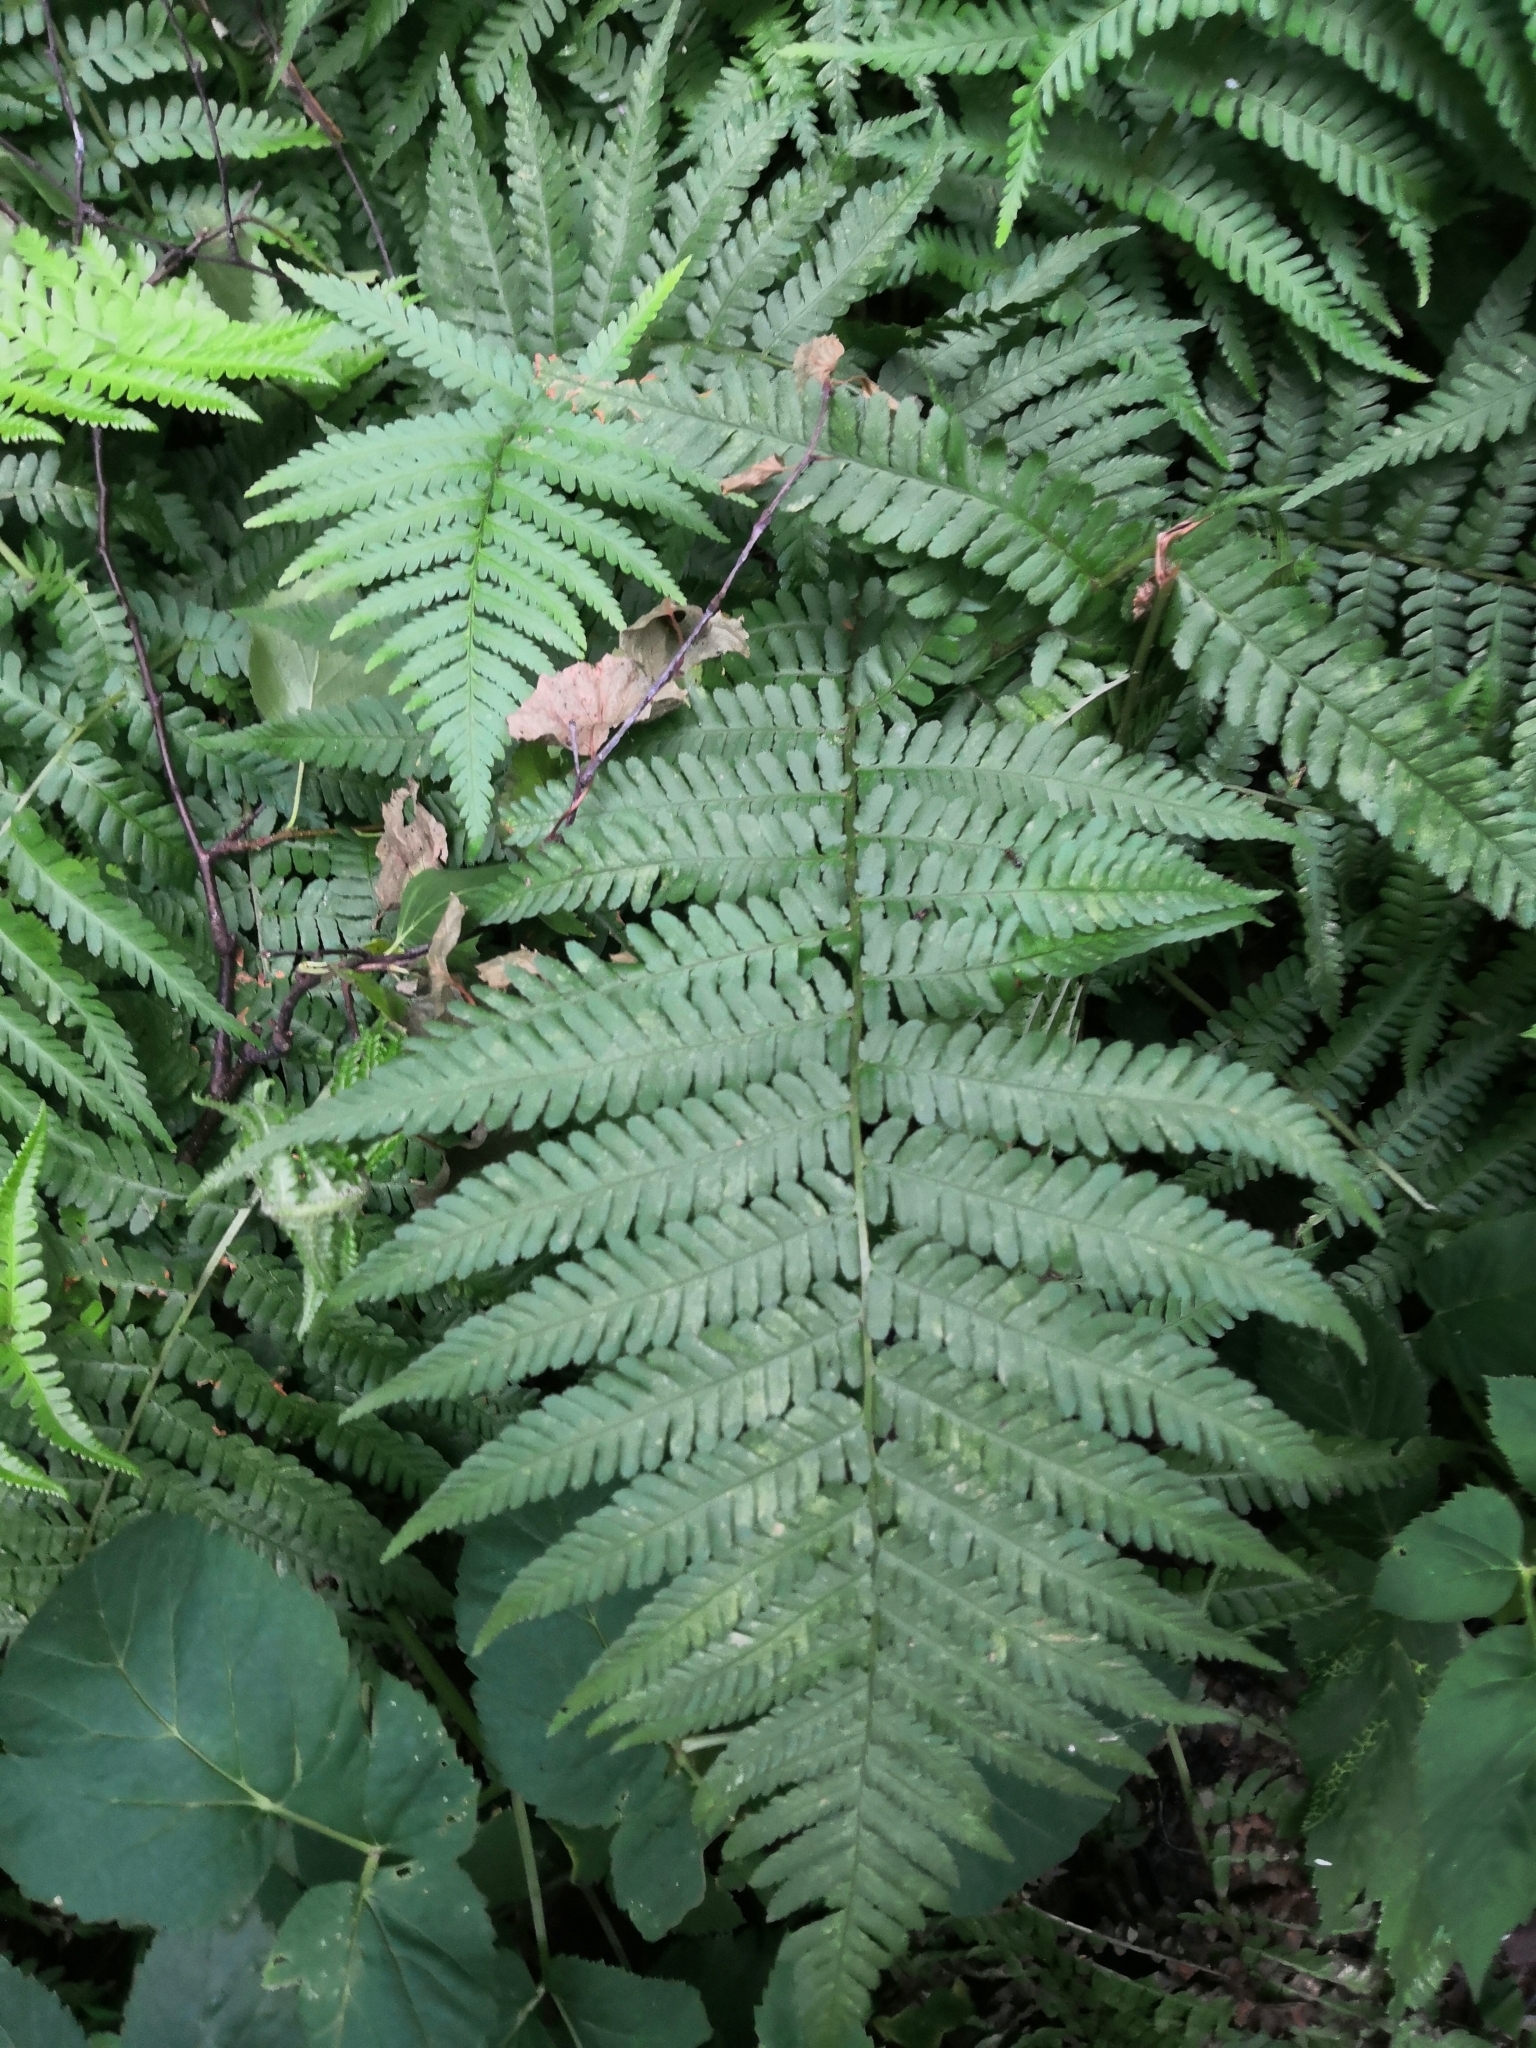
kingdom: Plantae
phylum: Tracheophyta
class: Polypodiopsida
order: Polypodiales
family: Dryopteridaceae
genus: Dryopteris
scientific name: Dryopteris filix-mas
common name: Male fern
